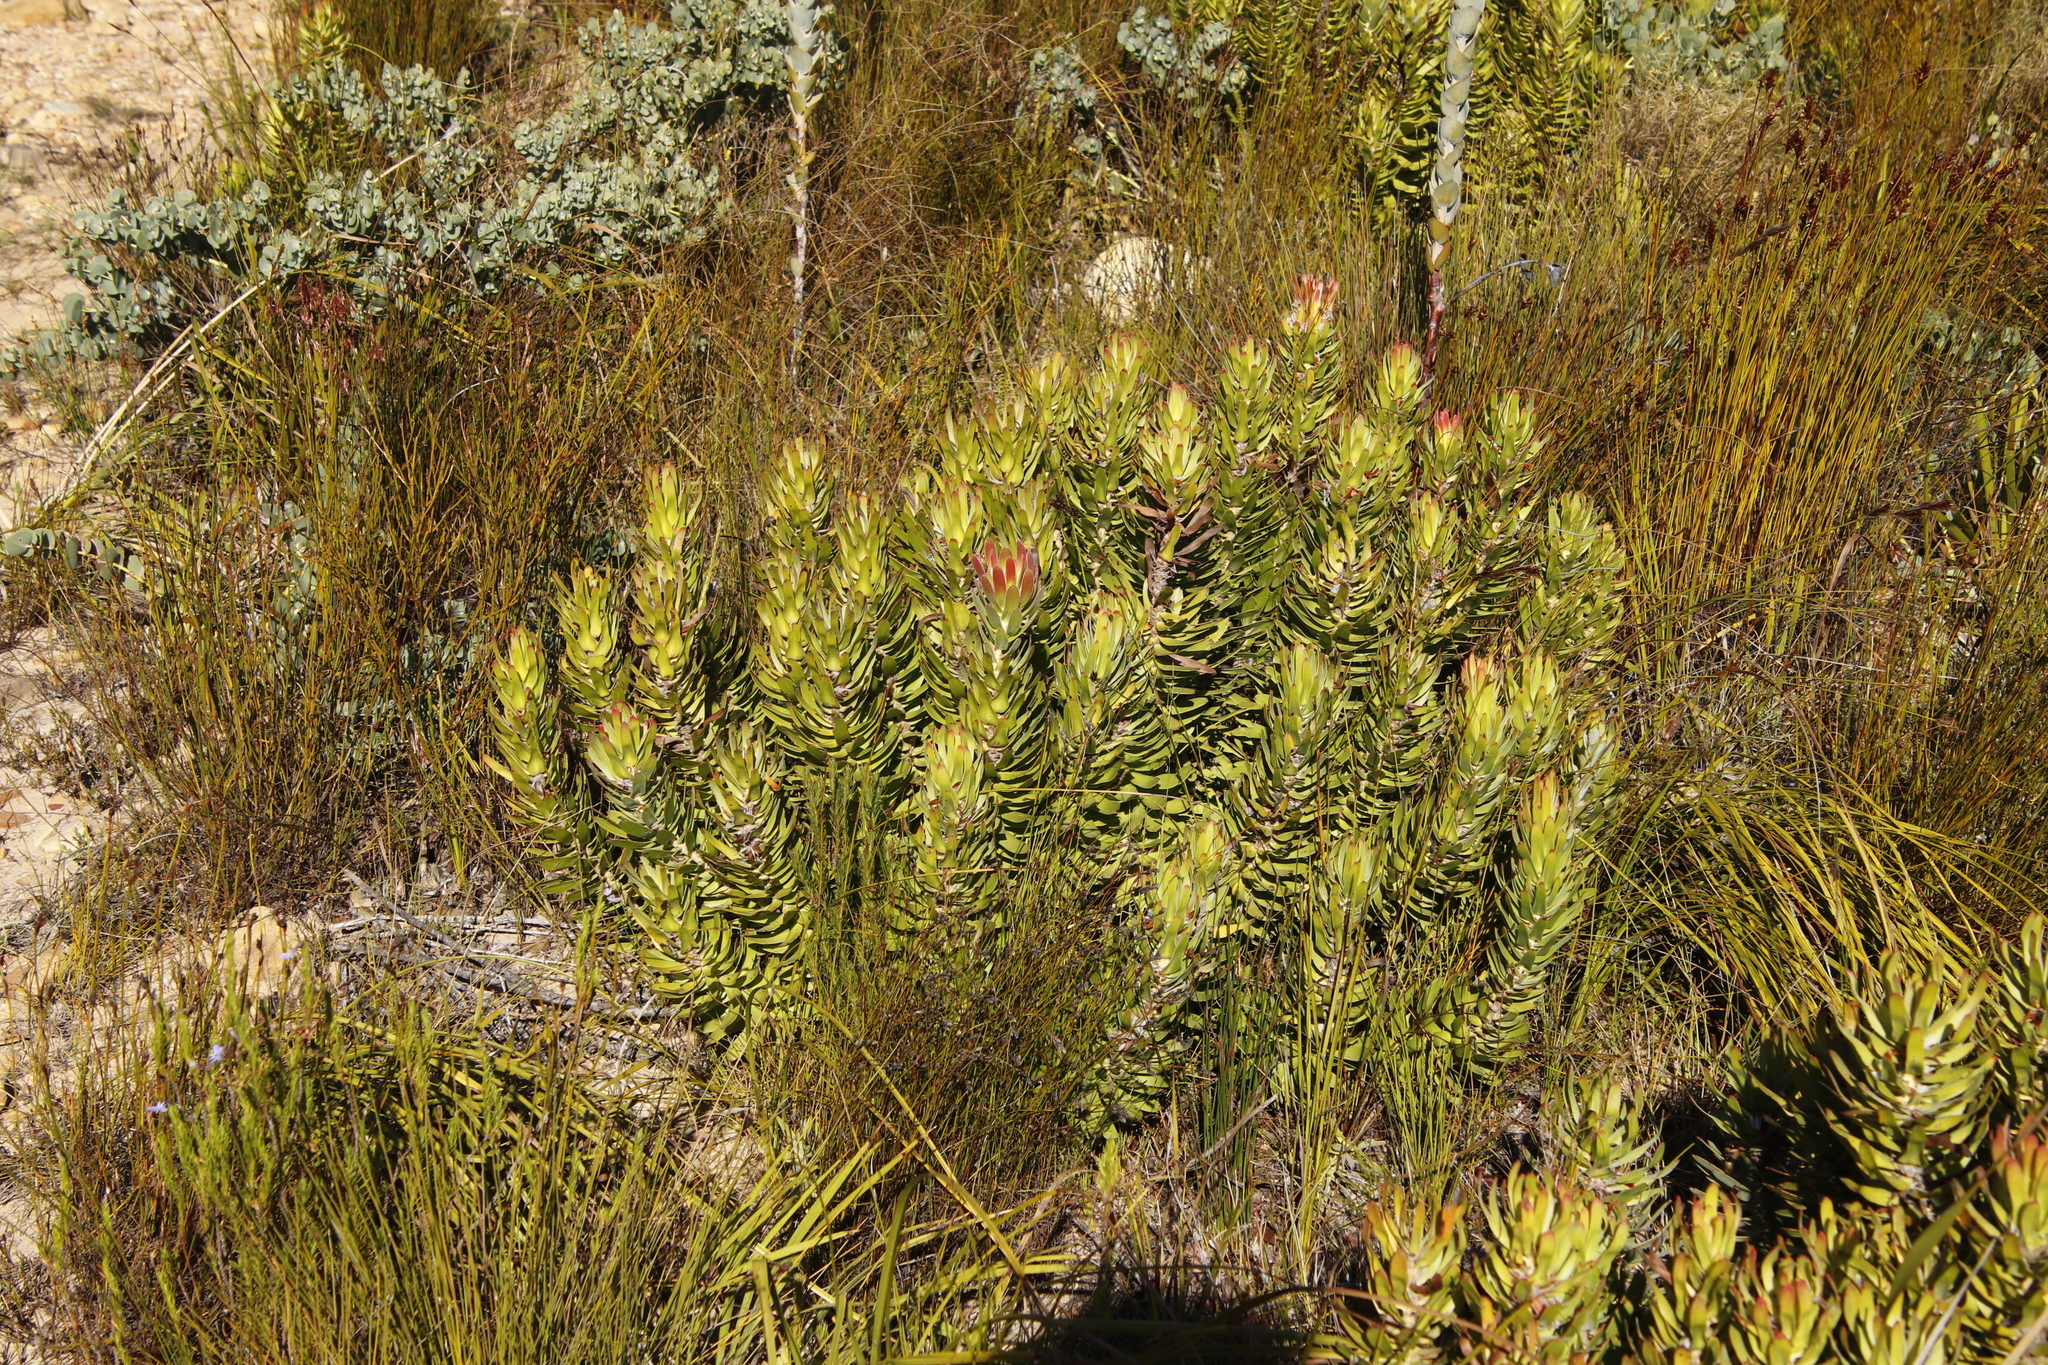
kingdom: Plantae
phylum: Tracheophyta
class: Magnoliopsida
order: Proteales
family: Proteaceae
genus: Mimetes
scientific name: Mimetes cucullatus
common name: Common pagoda
